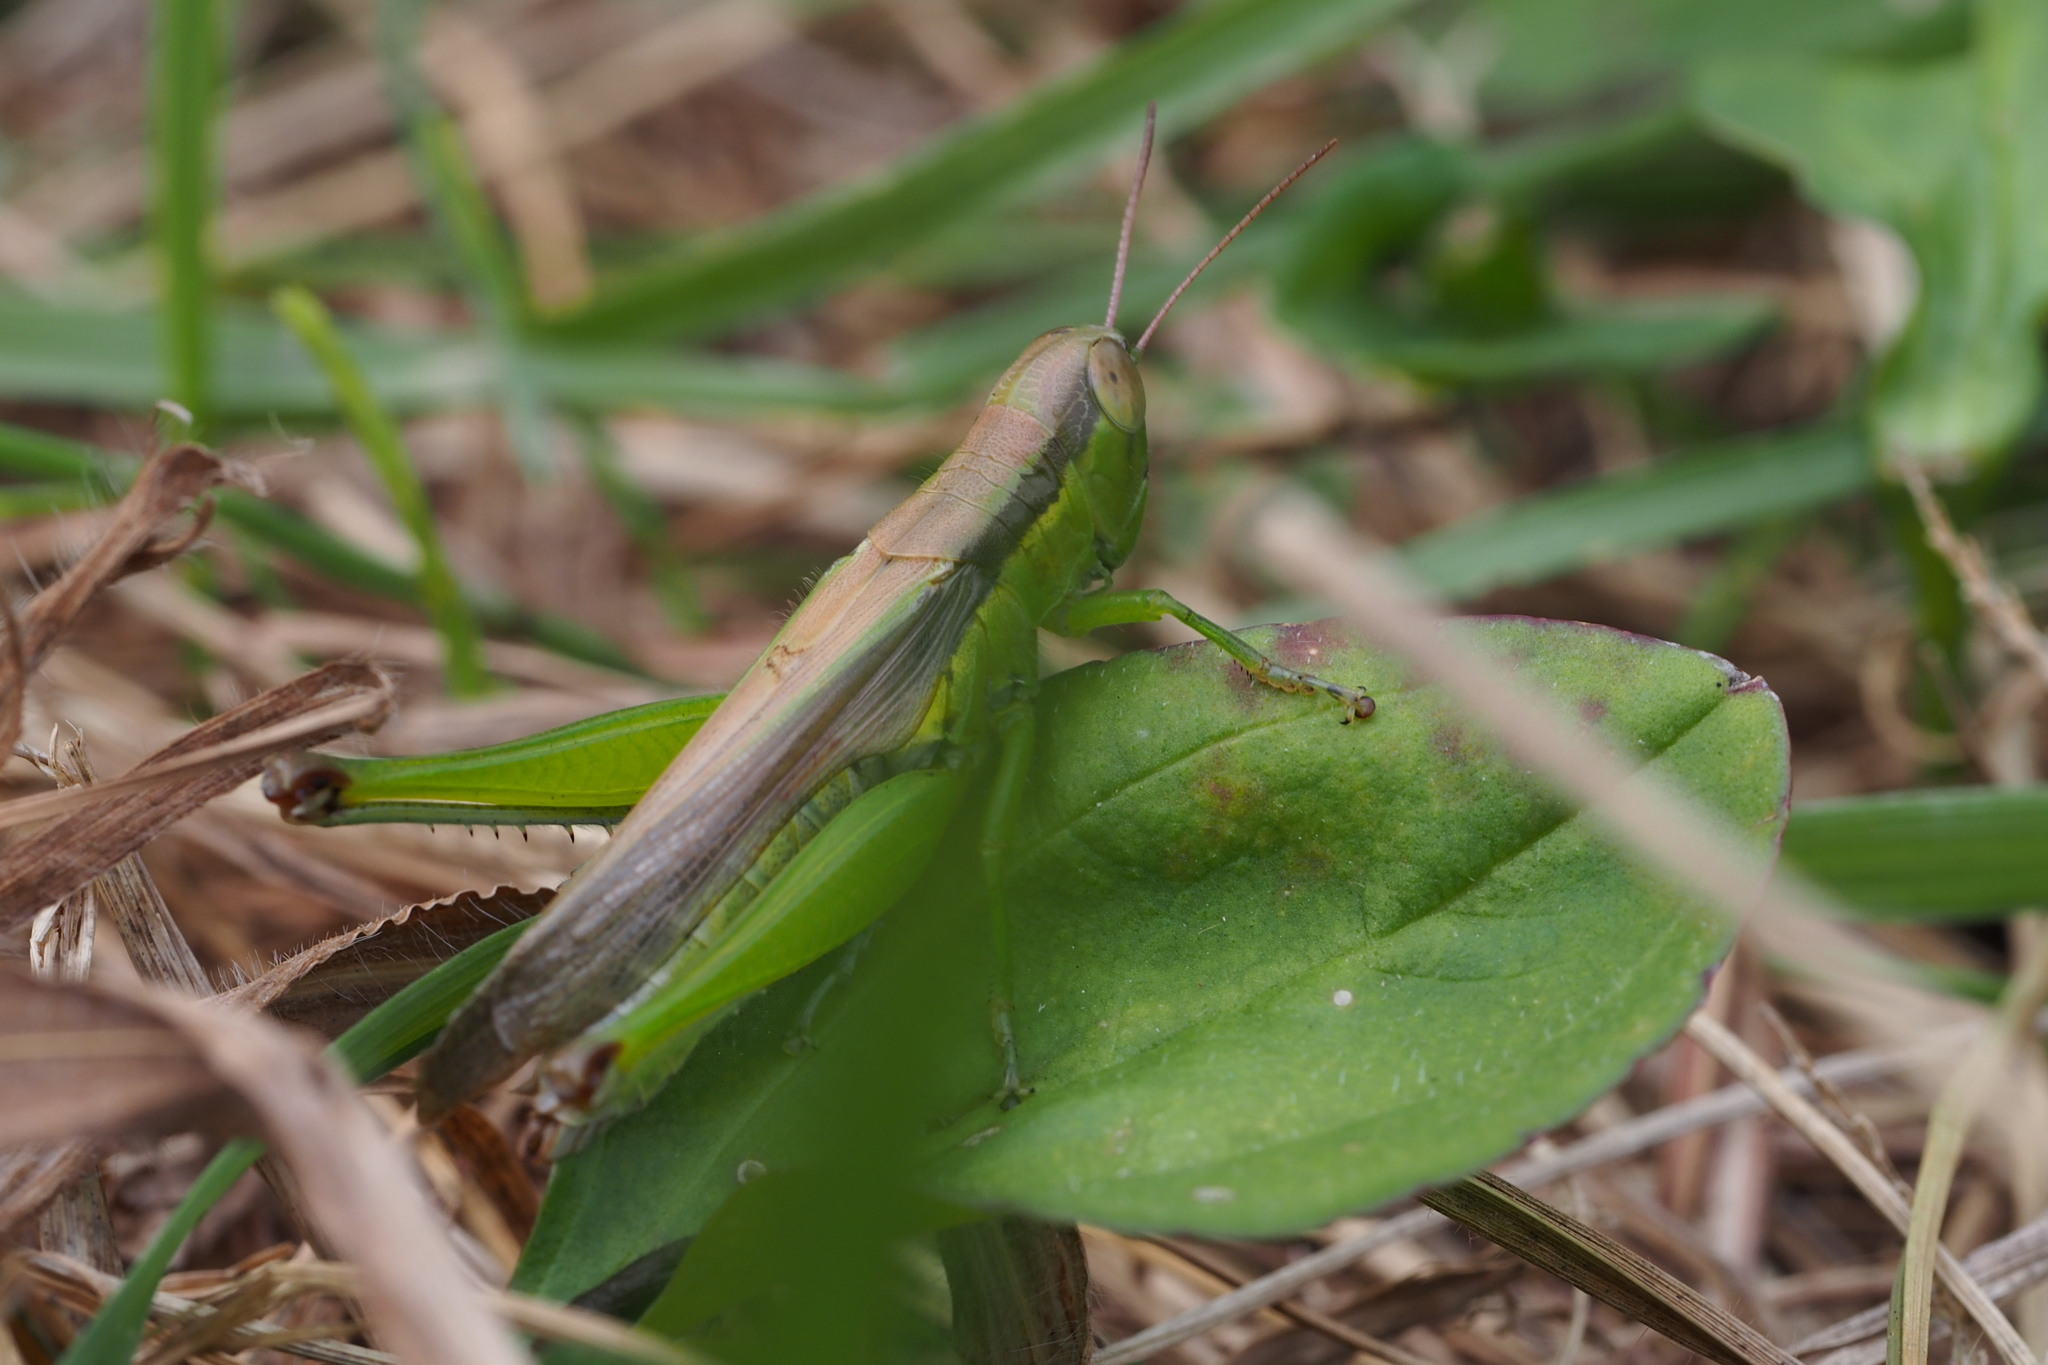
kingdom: Animalia
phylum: Arthropoda
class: Insecta
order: Orthoptera
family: Acrididae
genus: Oxya
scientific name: Oxya yezoensis
